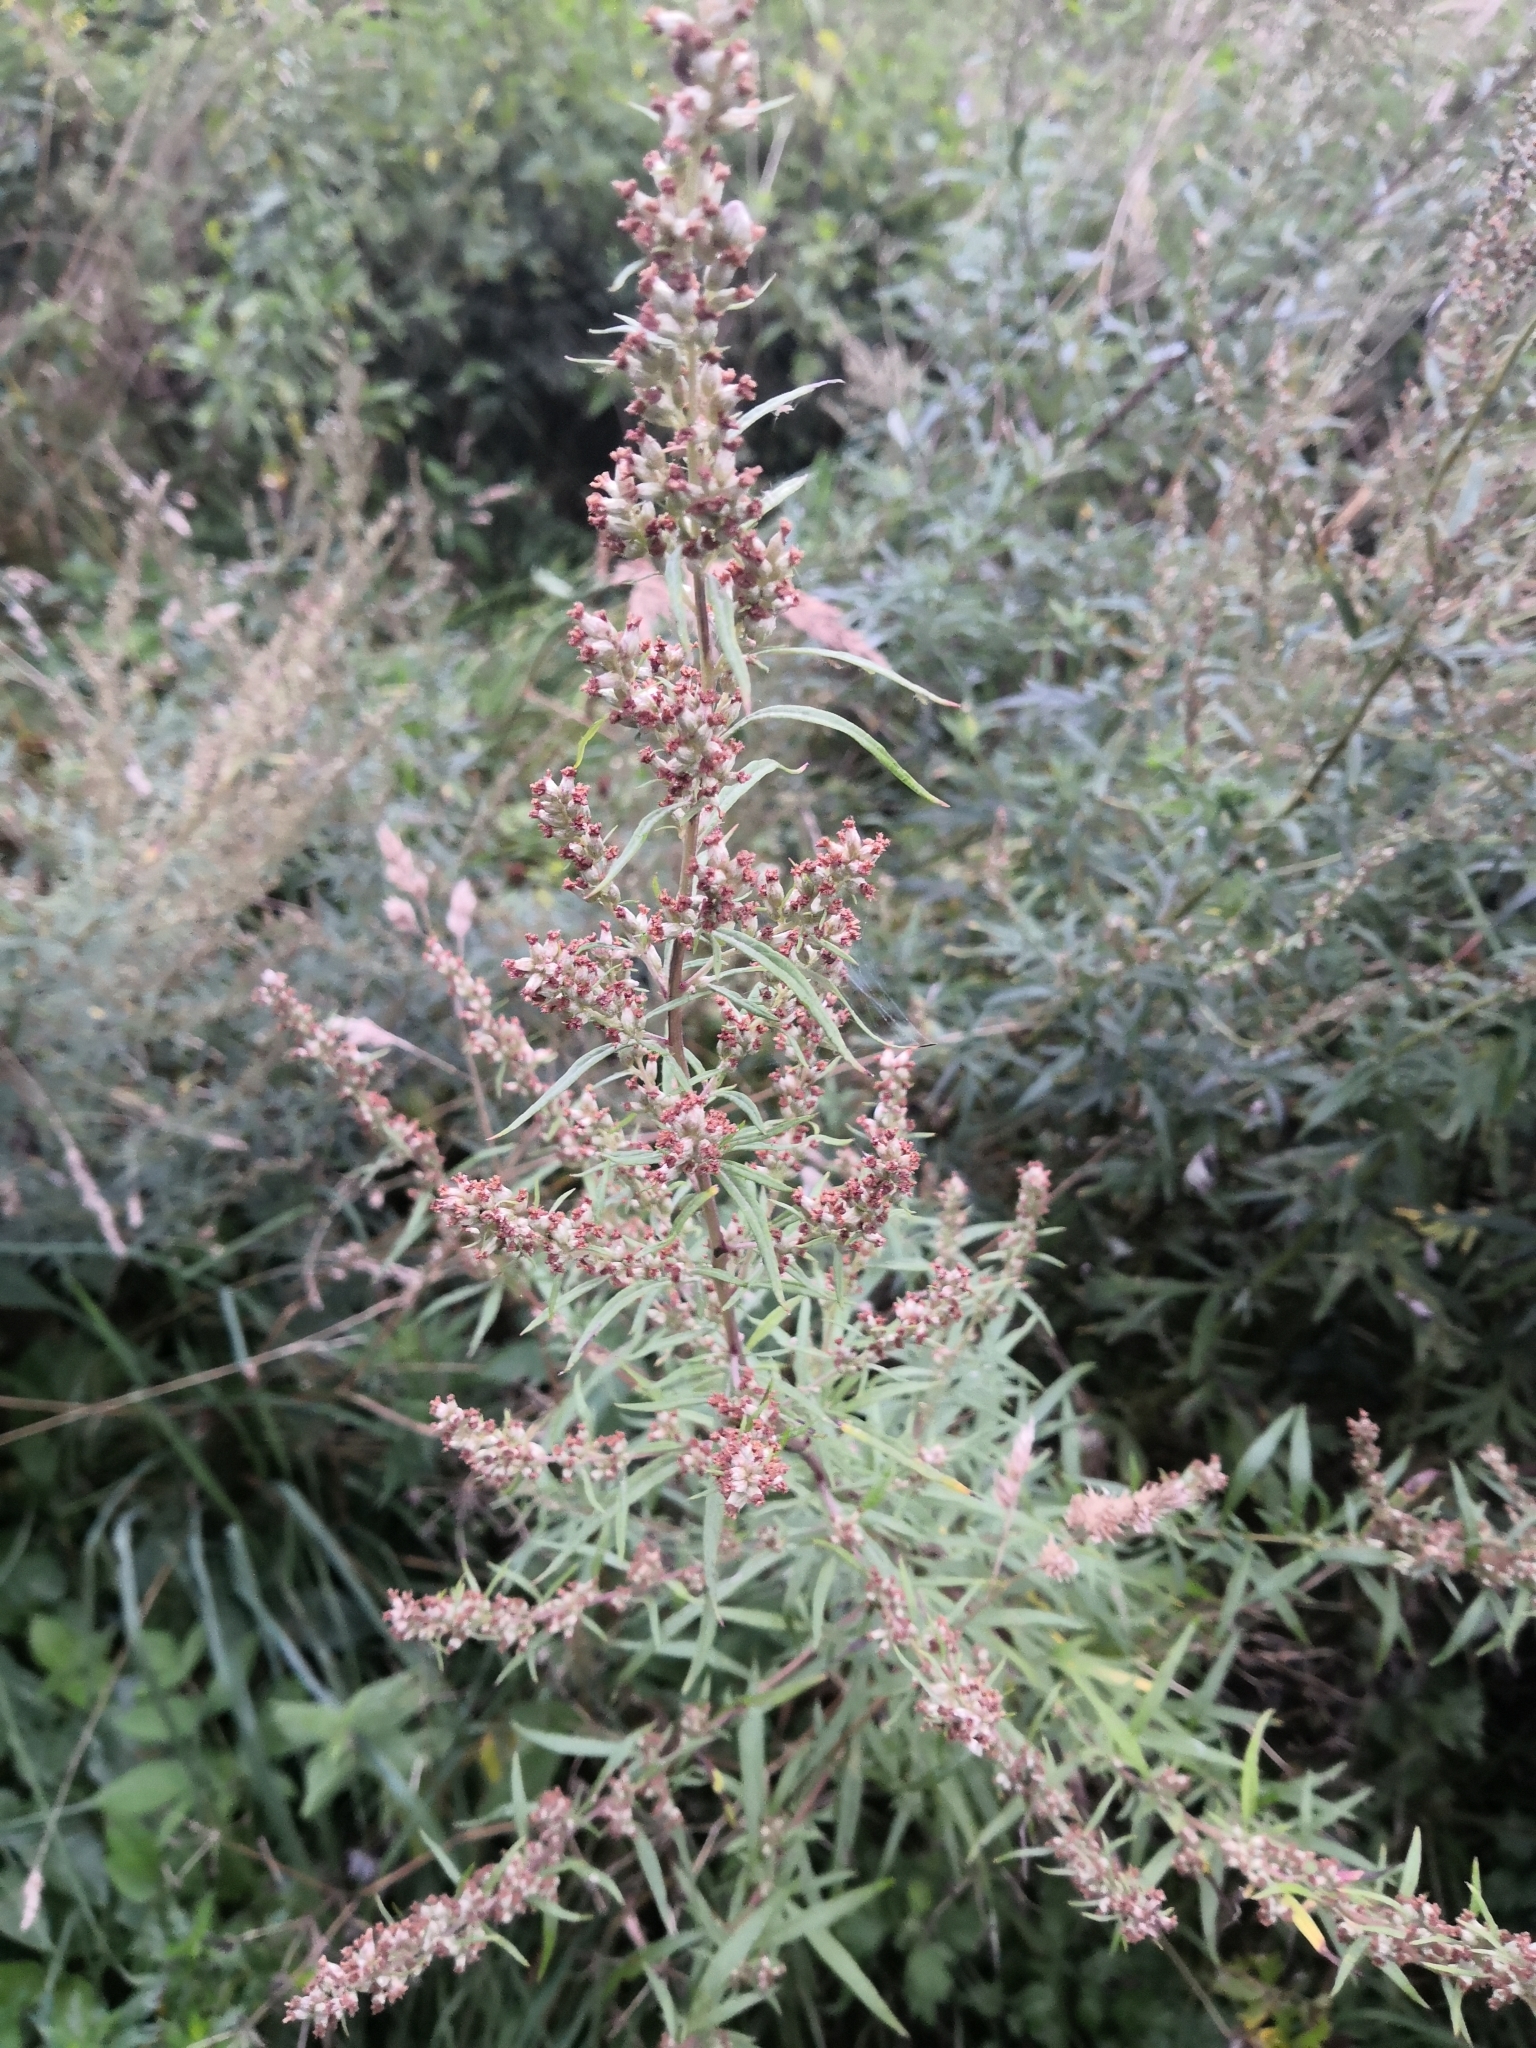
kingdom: Plantae
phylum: Tracheophyta
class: Magnoliopsida
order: Asterales
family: Asteraceae
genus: Artemisia
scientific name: Artemisia vulgaris
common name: Mugwort
